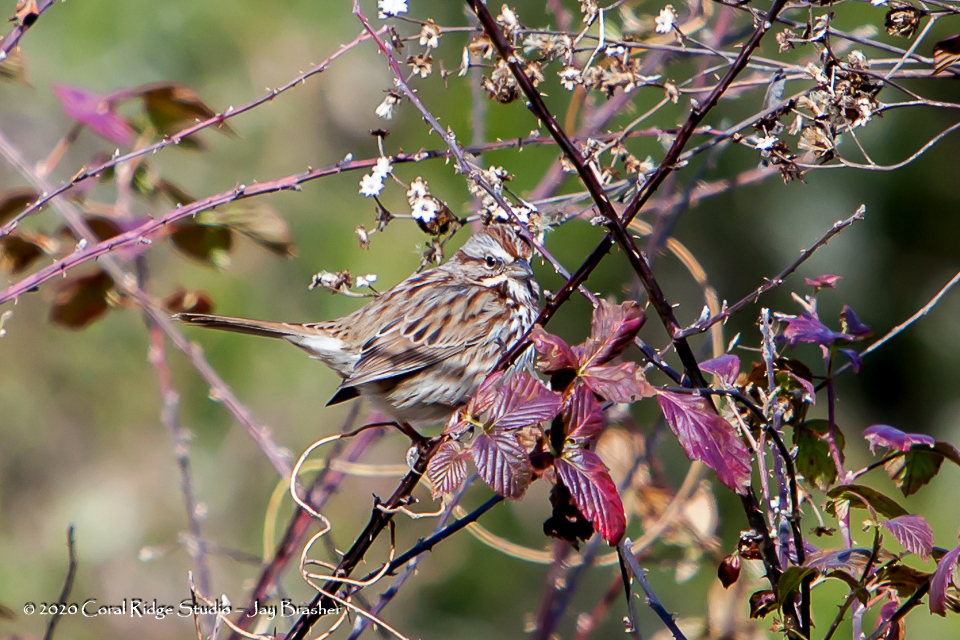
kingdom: Animalia
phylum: Chordata
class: Aves
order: Passeriformes
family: Passerellidae
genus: Melospiza
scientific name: Melospiza melodia
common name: Song sparrow
